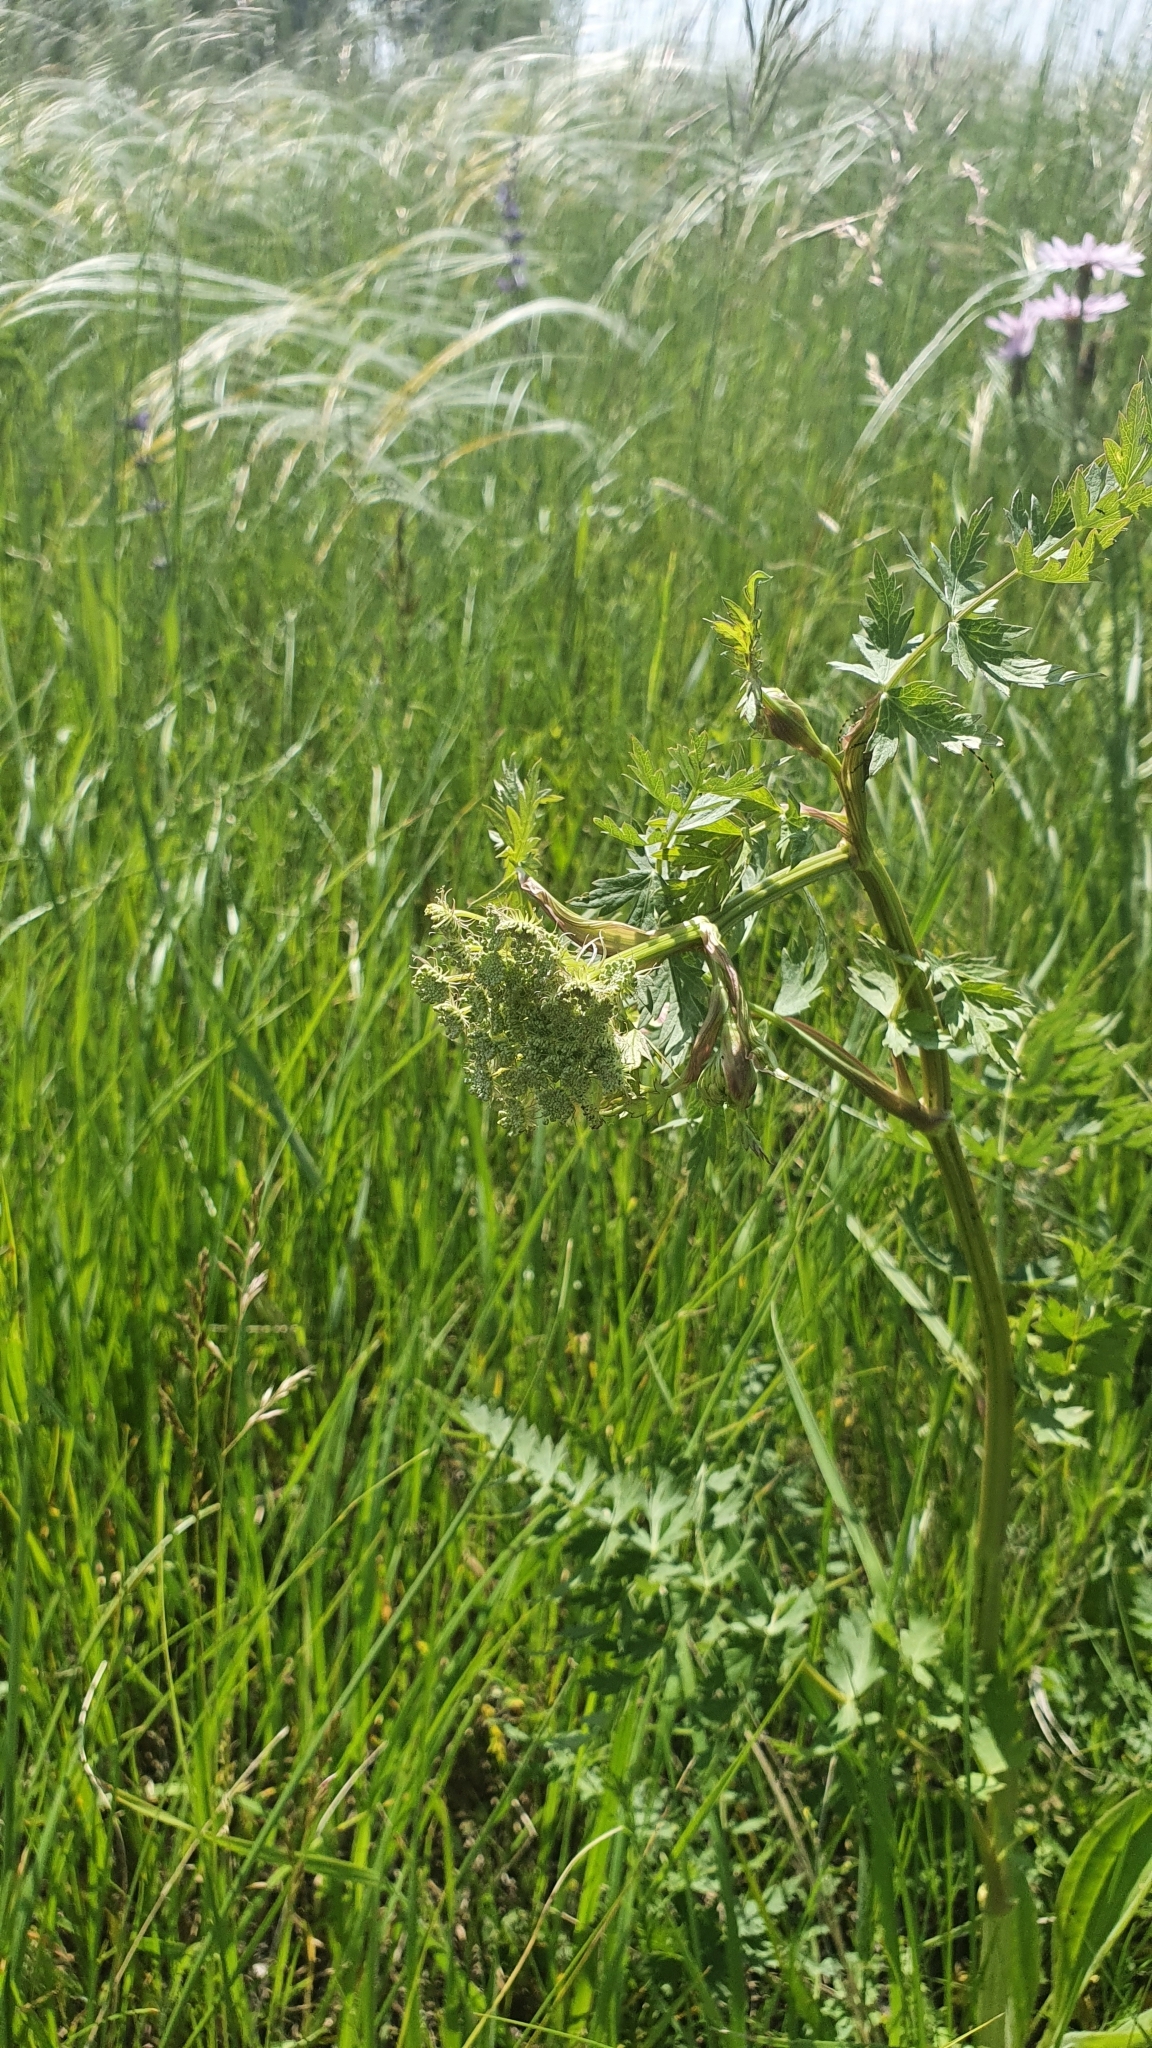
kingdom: Plantae
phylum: Tracheophyta
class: Magnoliopsida
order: Apiales
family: Apiaceae
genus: Seseli
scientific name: Seseli libanotis
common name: Mooncarrot
